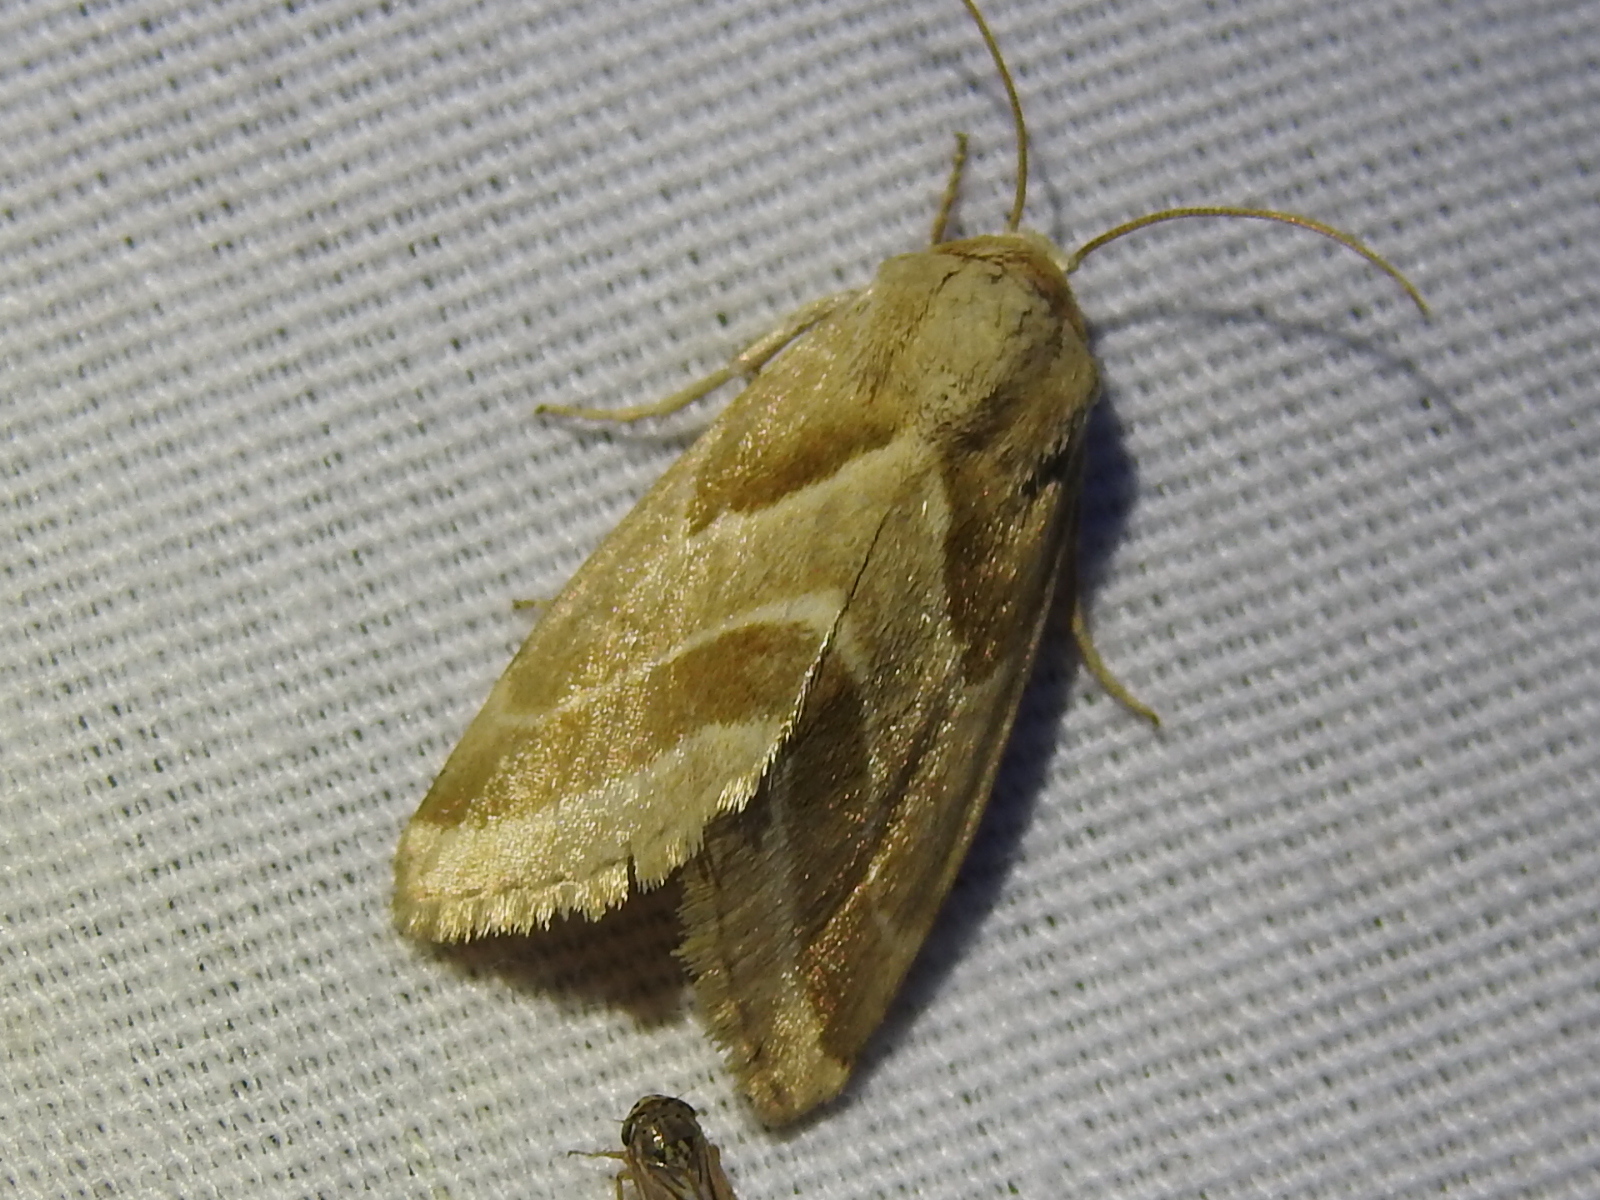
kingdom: Animalia
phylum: Arthropoda
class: Insecta
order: Lepidoptera
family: Noctuidae
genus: Schinia
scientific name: Schinia trifascia
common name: Three-lined flower moth
